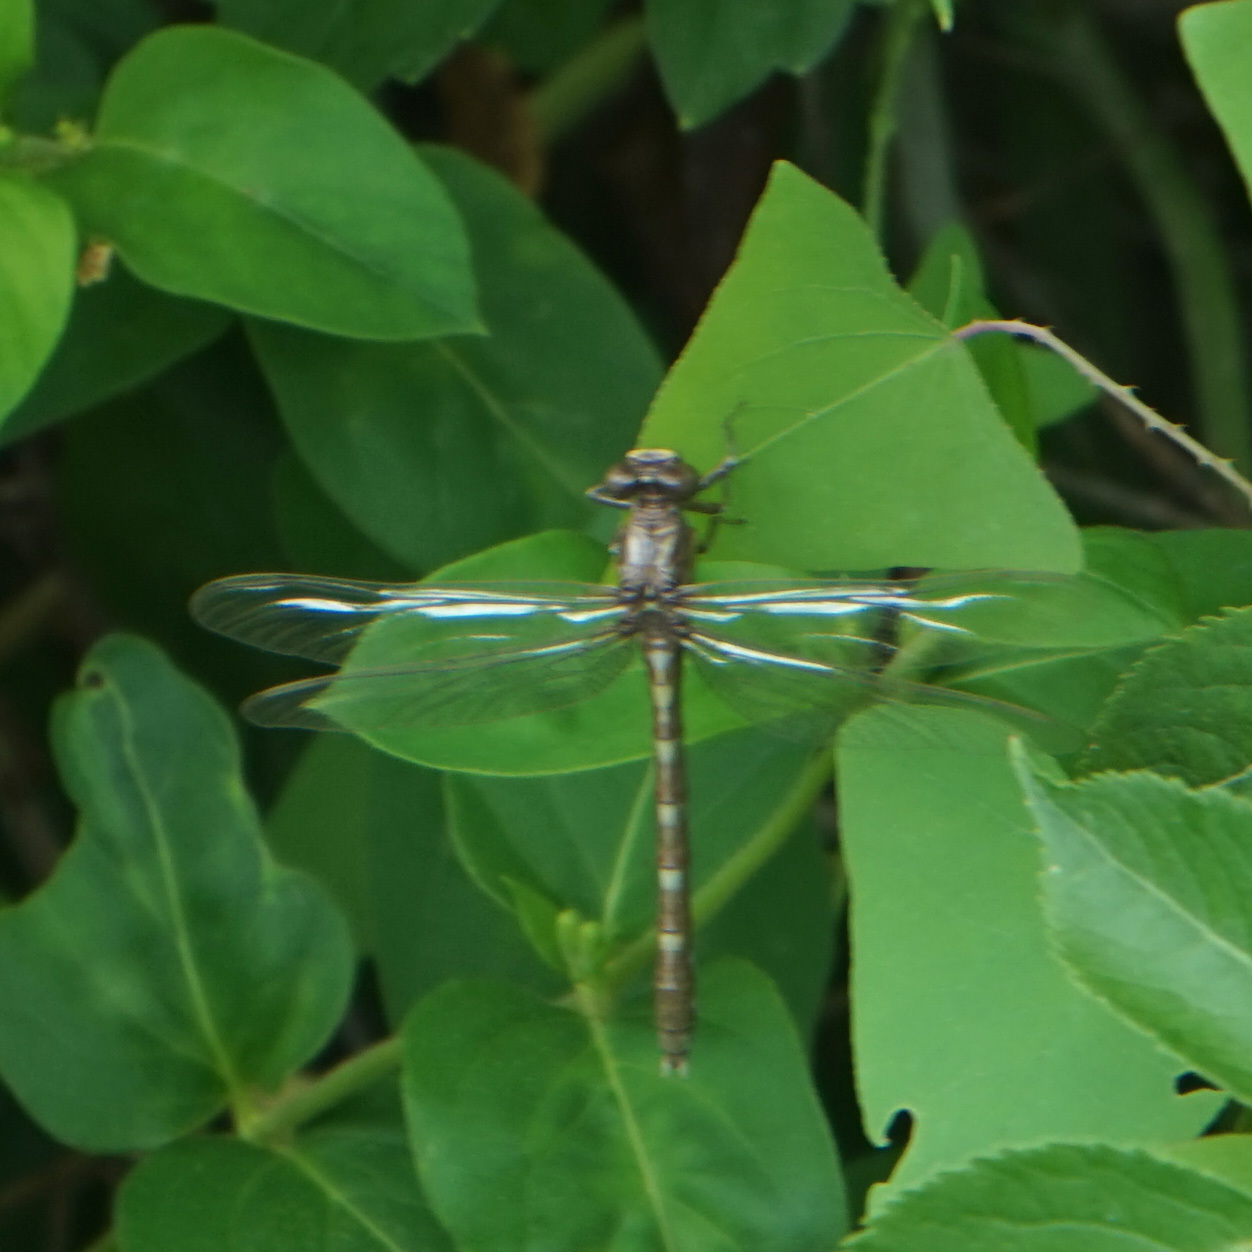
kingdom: Animalia
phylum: Arthropoda
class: Insecta
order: Odonata
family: Gomphidae
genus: Progomphus
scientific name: Progomphus obscurus
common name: Common sanddragon
